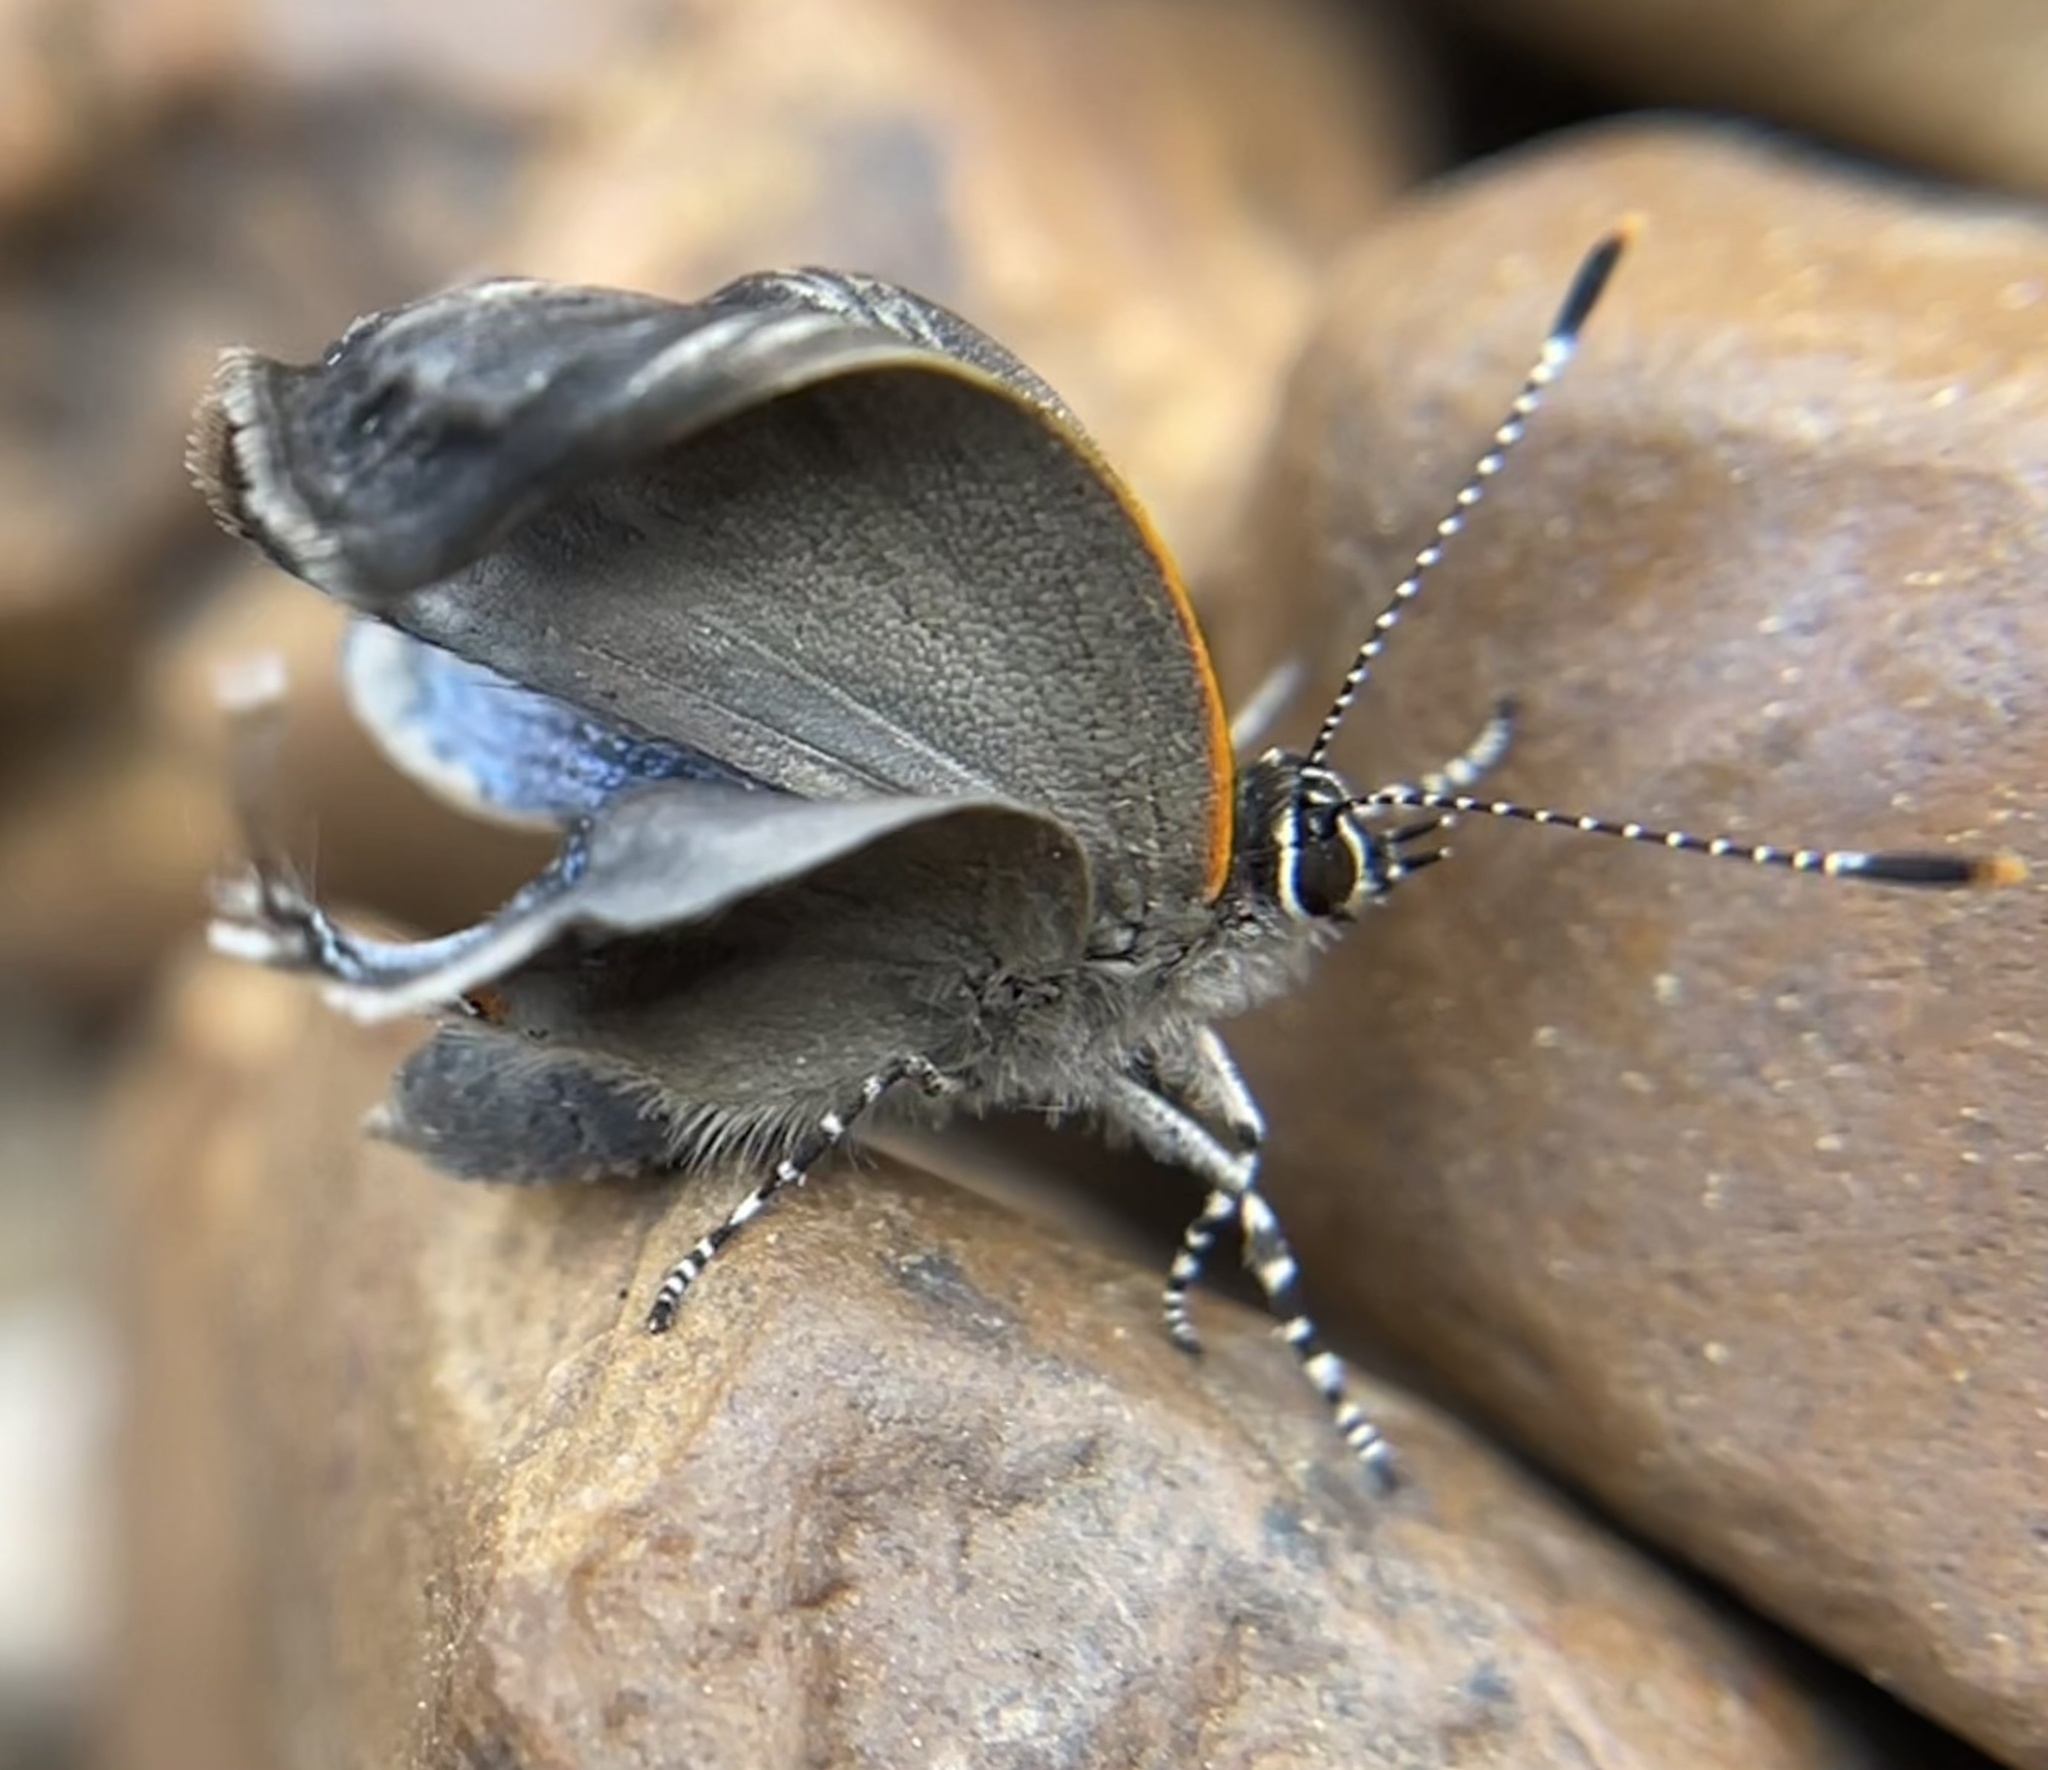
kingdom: Animalia
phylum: Arthropoda
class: Insecta
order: Lepidoptera
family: Lycaenidae
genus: Calycopis
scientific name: Calycopis cecrops
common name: Red-banded hairstreak
